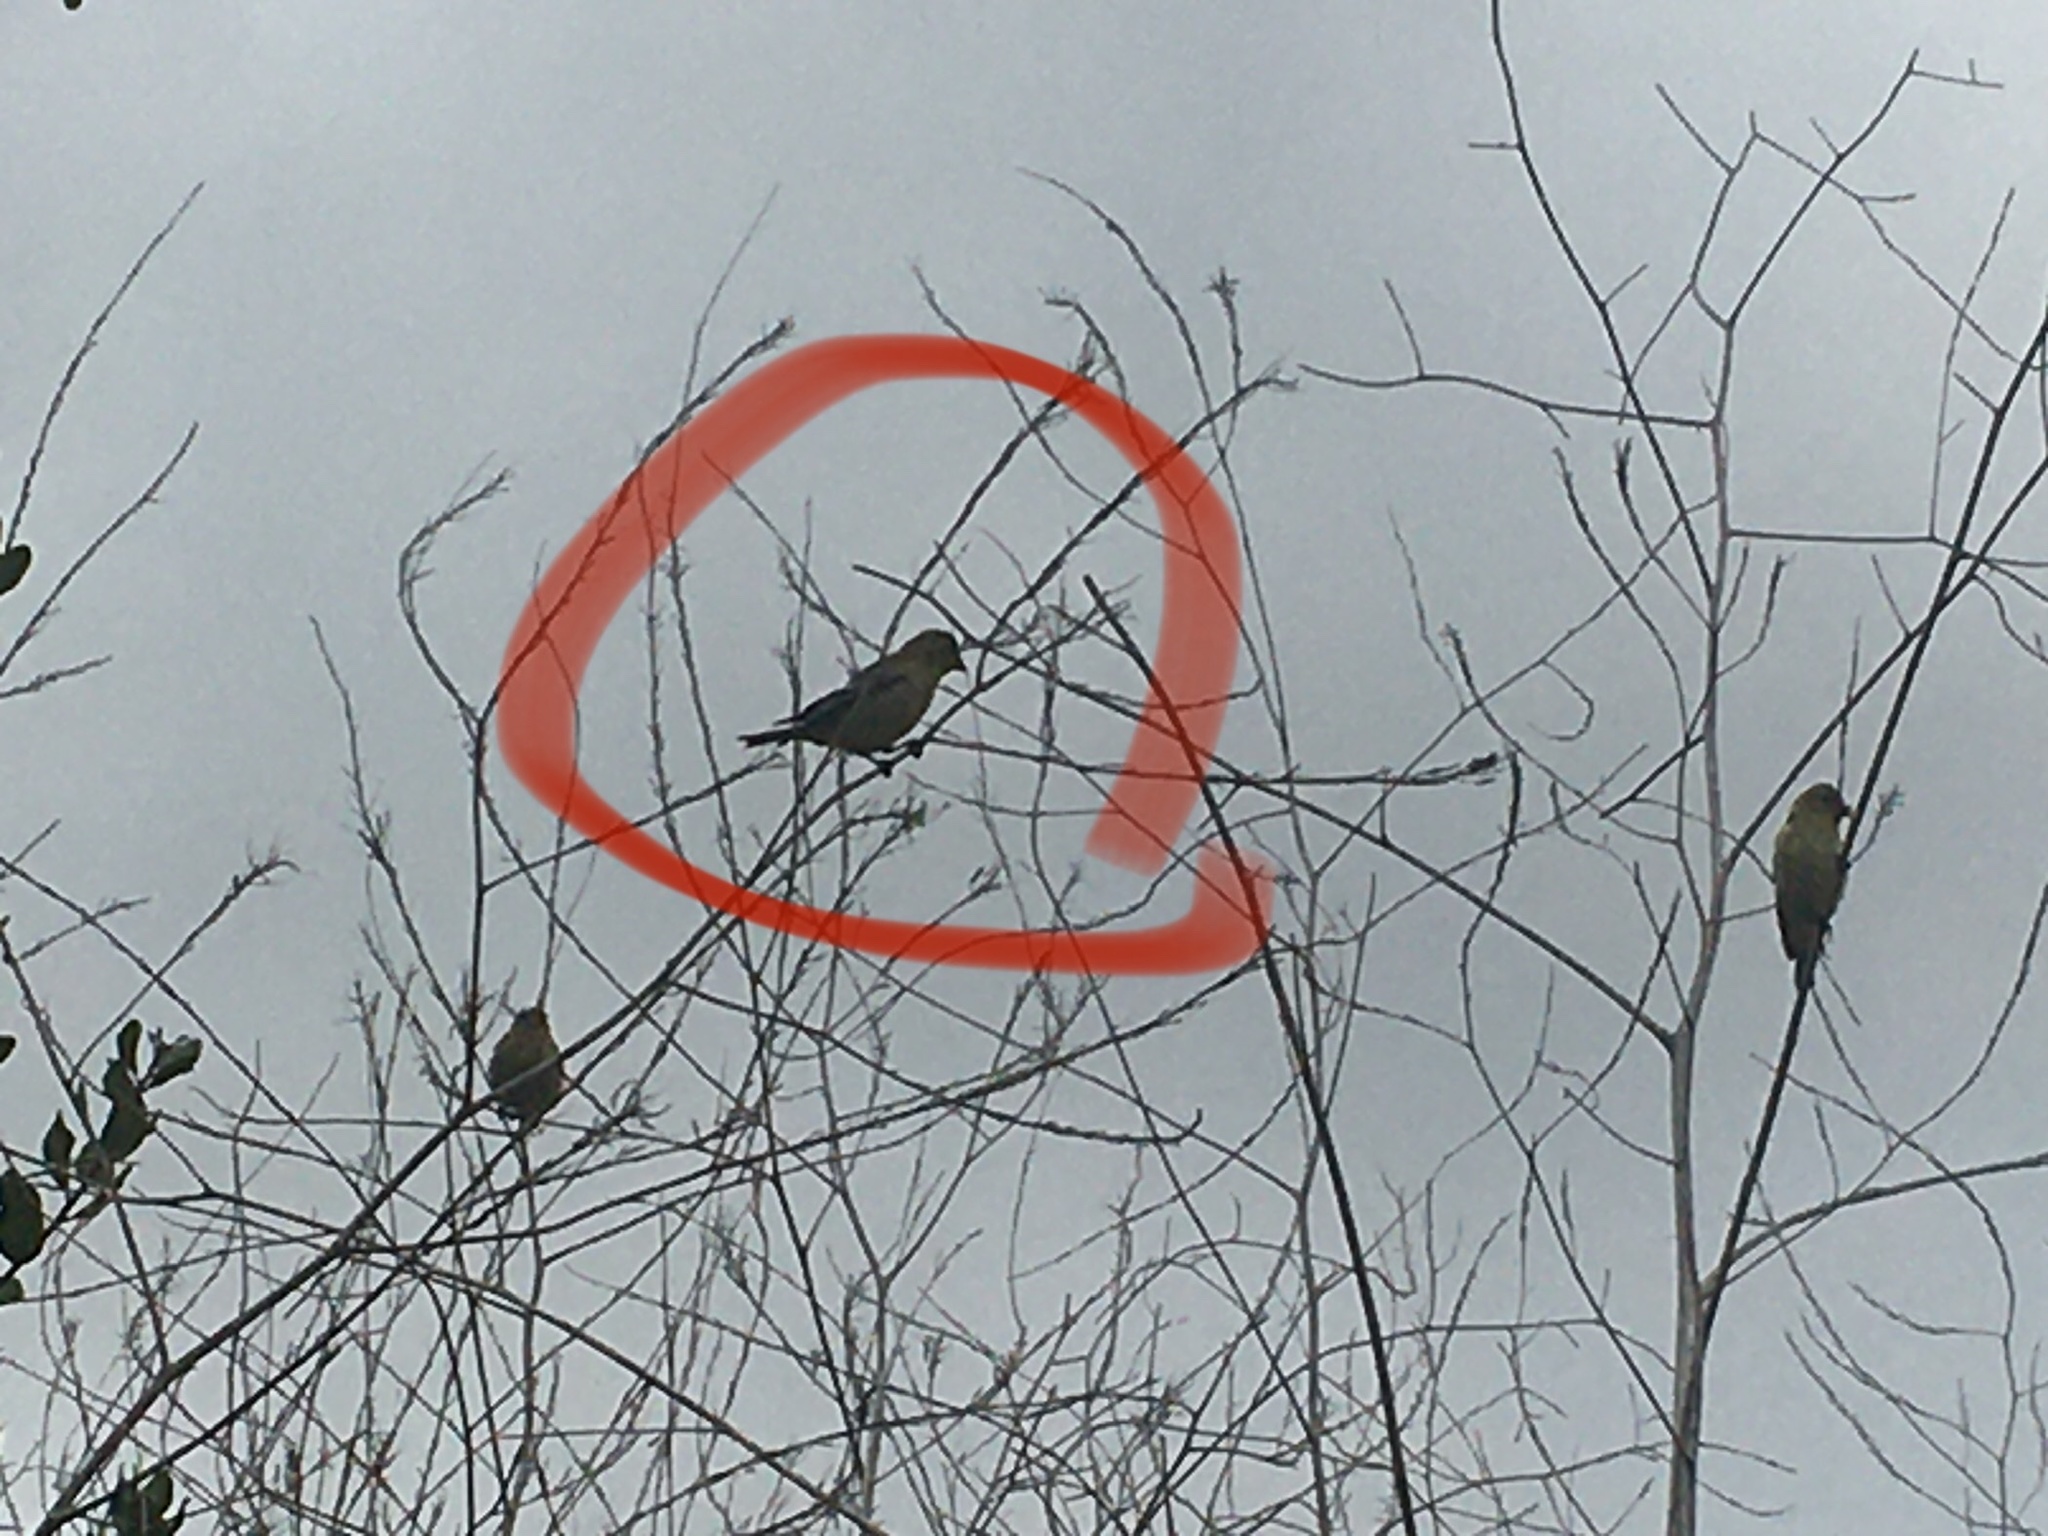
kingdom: Animalia
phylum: Chordata
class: Aves
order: Passeriformes
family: Fringillidae
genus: Spinus
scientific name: Spinus psaltria
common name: Lesser goldfinch
